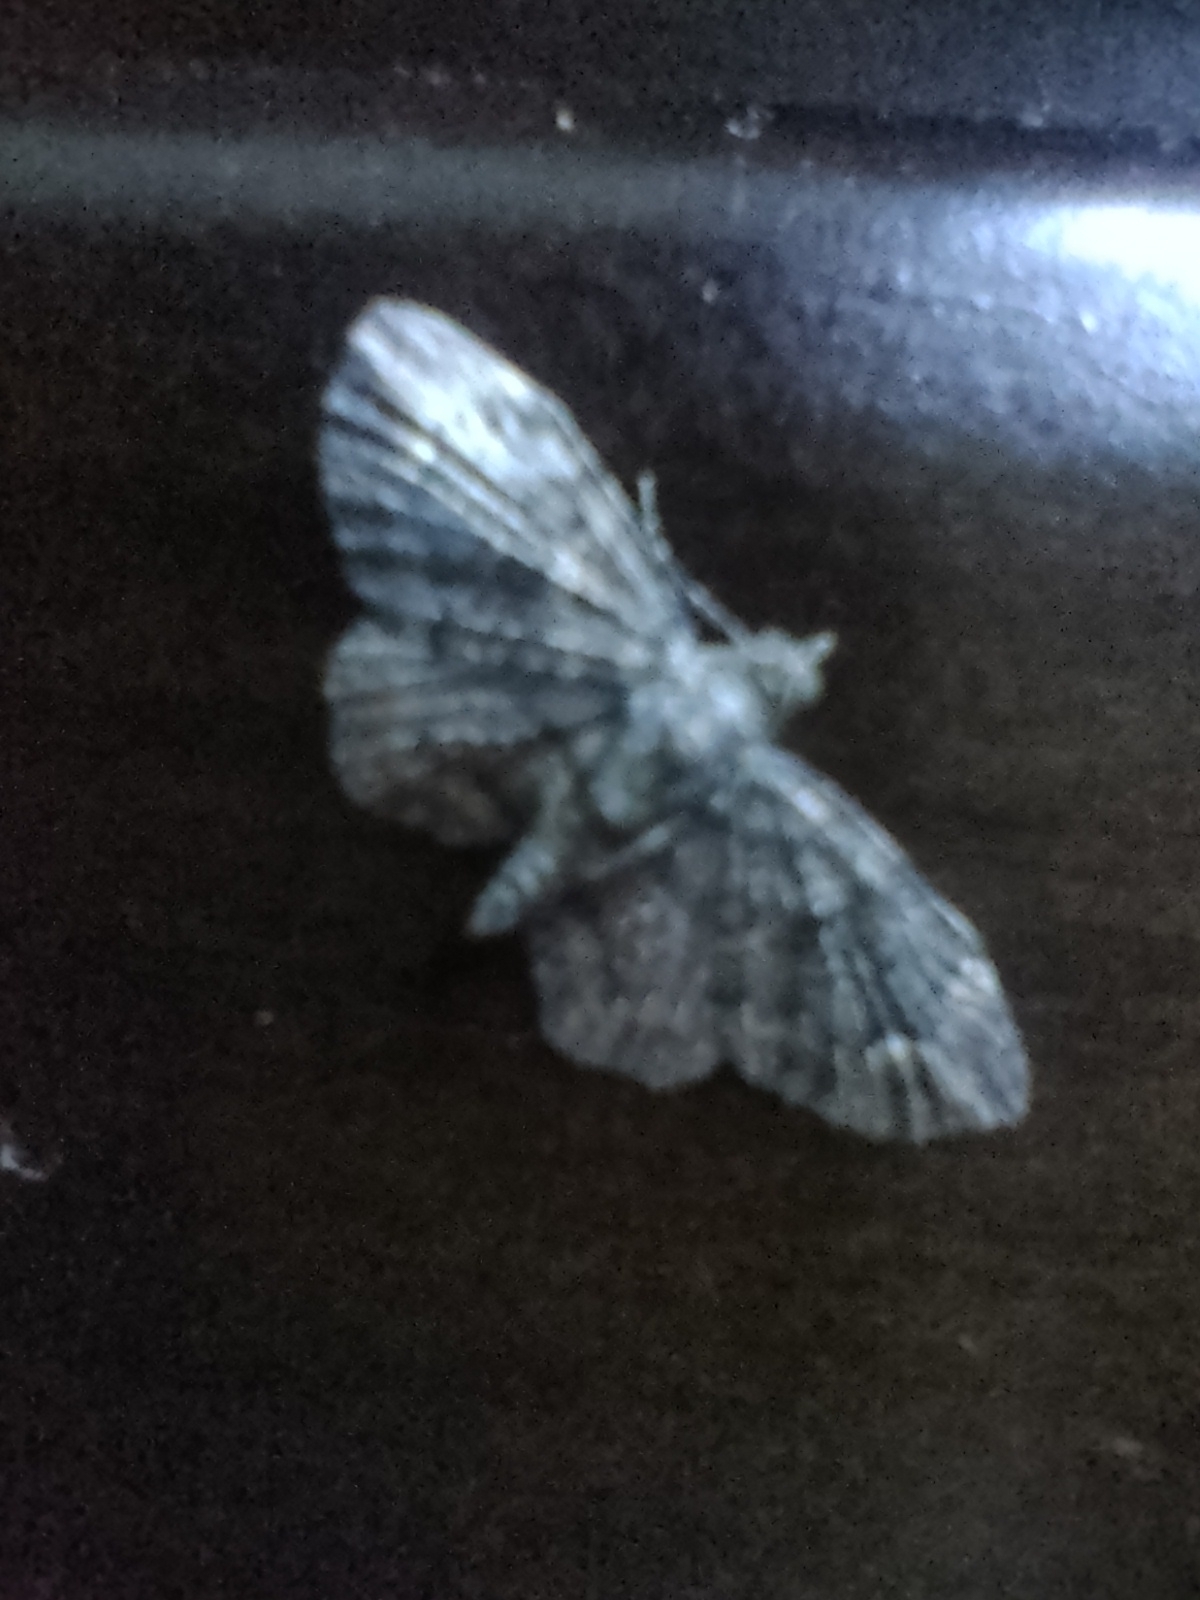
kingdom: Animalia
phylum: Arthropoda
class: Insecta
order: Lepidoptera
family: Geometridae
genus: Chloroclystis
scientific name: Chloroclystis filata
